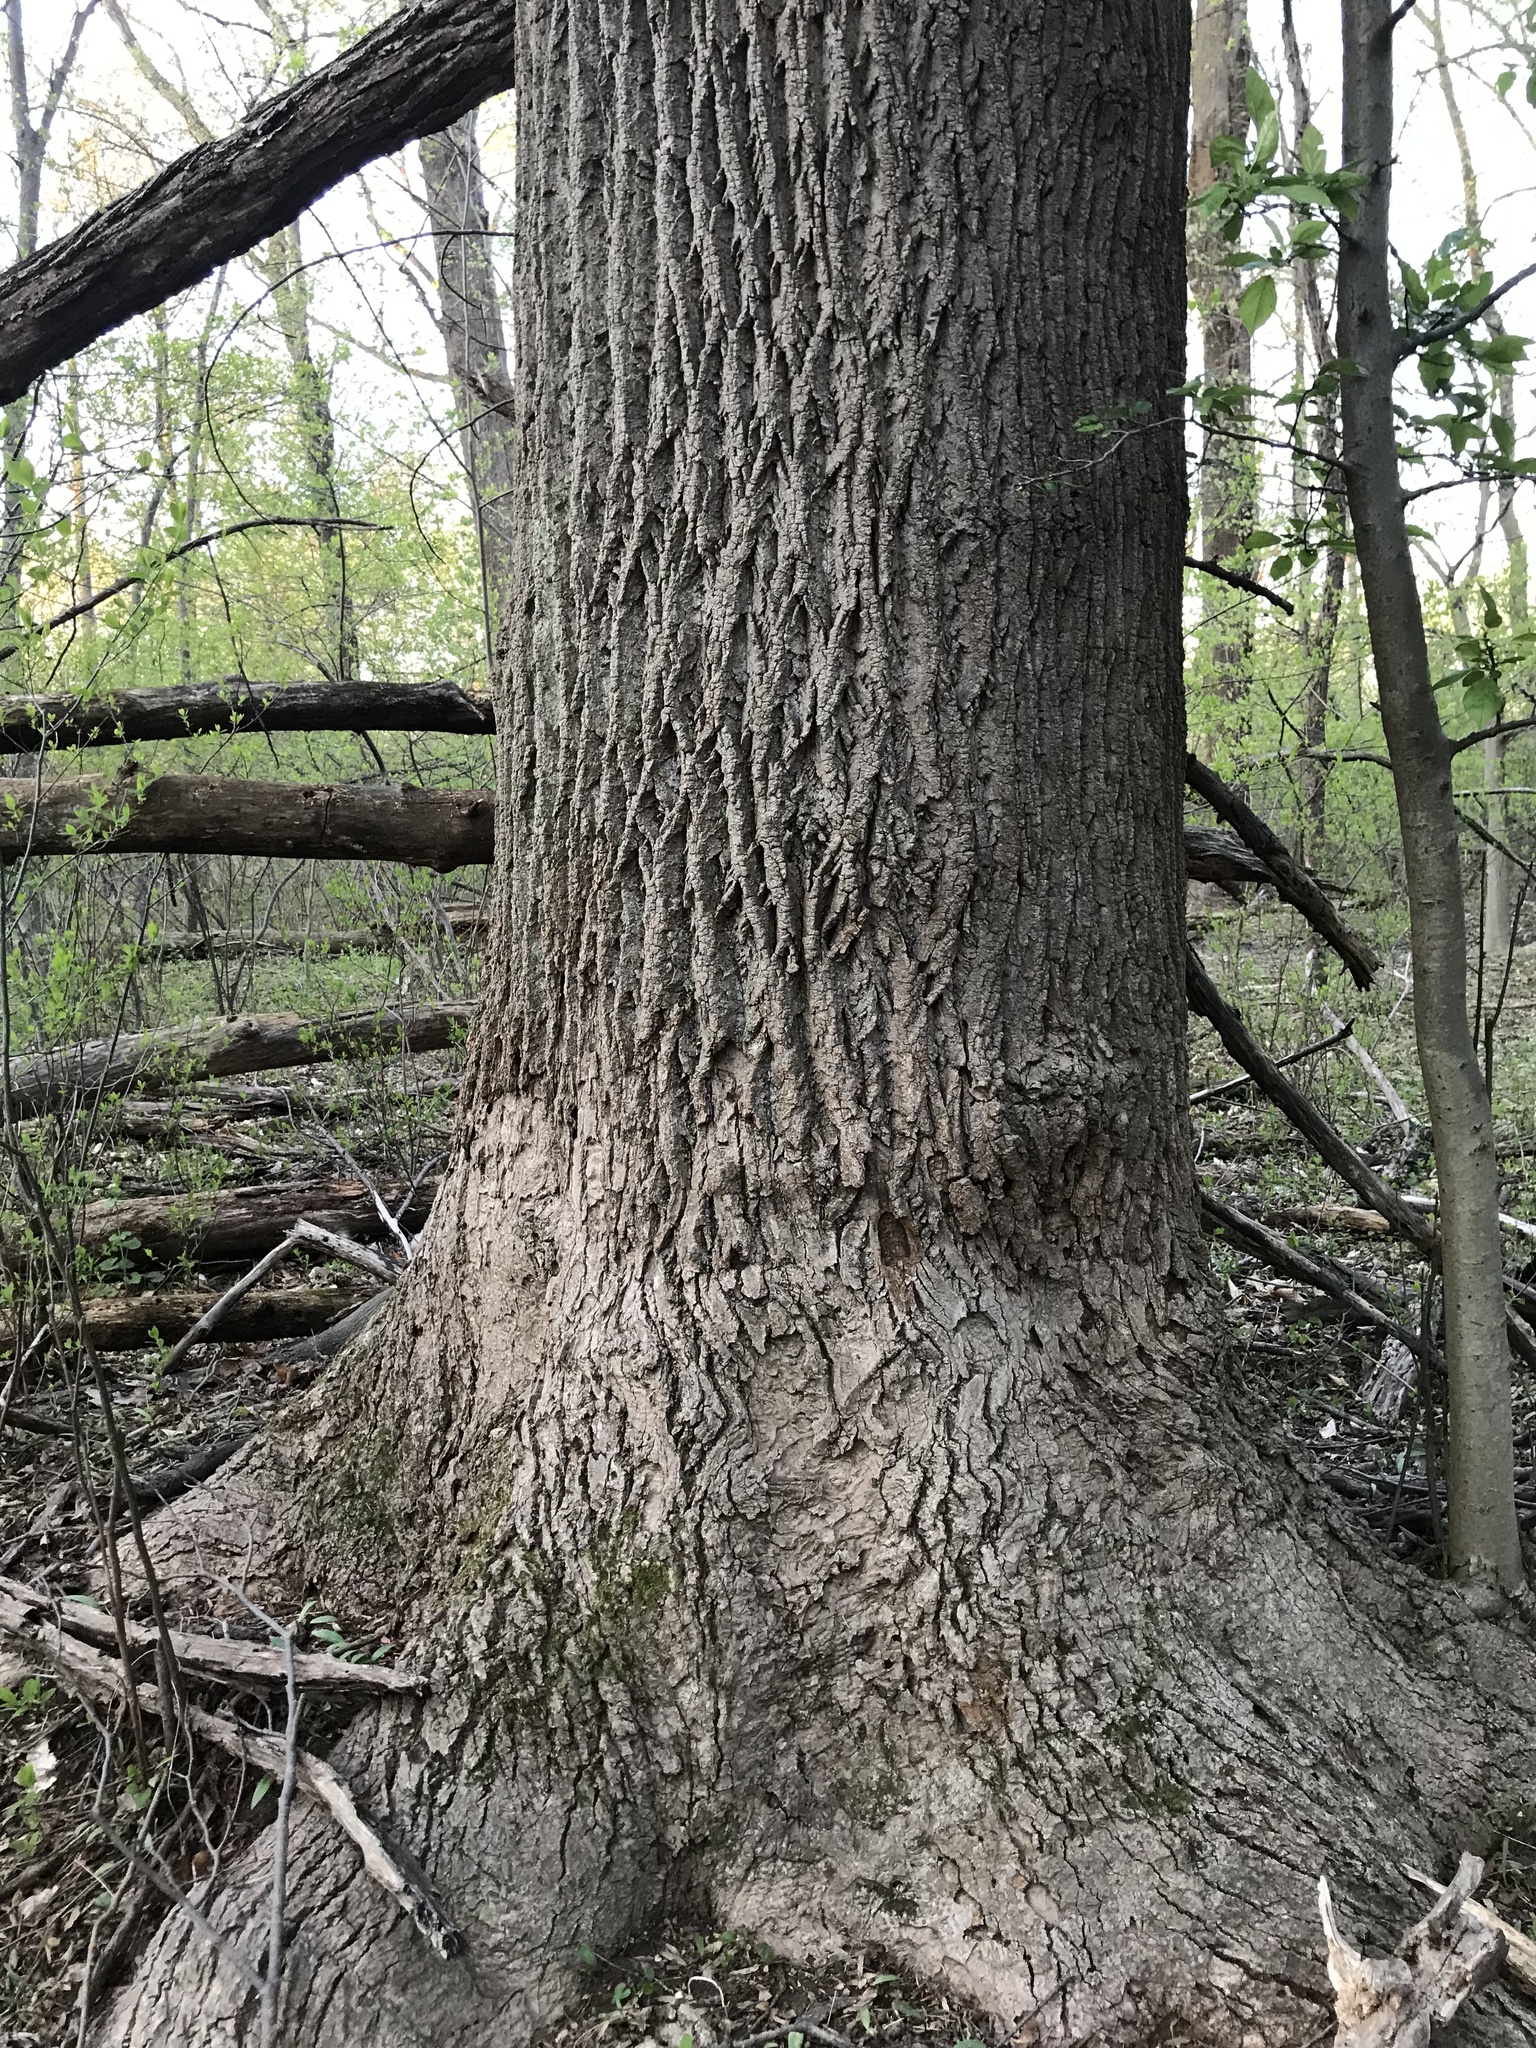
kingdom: Plantae
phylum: Tracheophyta
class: Magnoliopsida
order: Magnoliales
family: Magnoliaceae
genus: Liriodendron
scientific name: Liriodendron tulipifera
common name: Tulip tree
